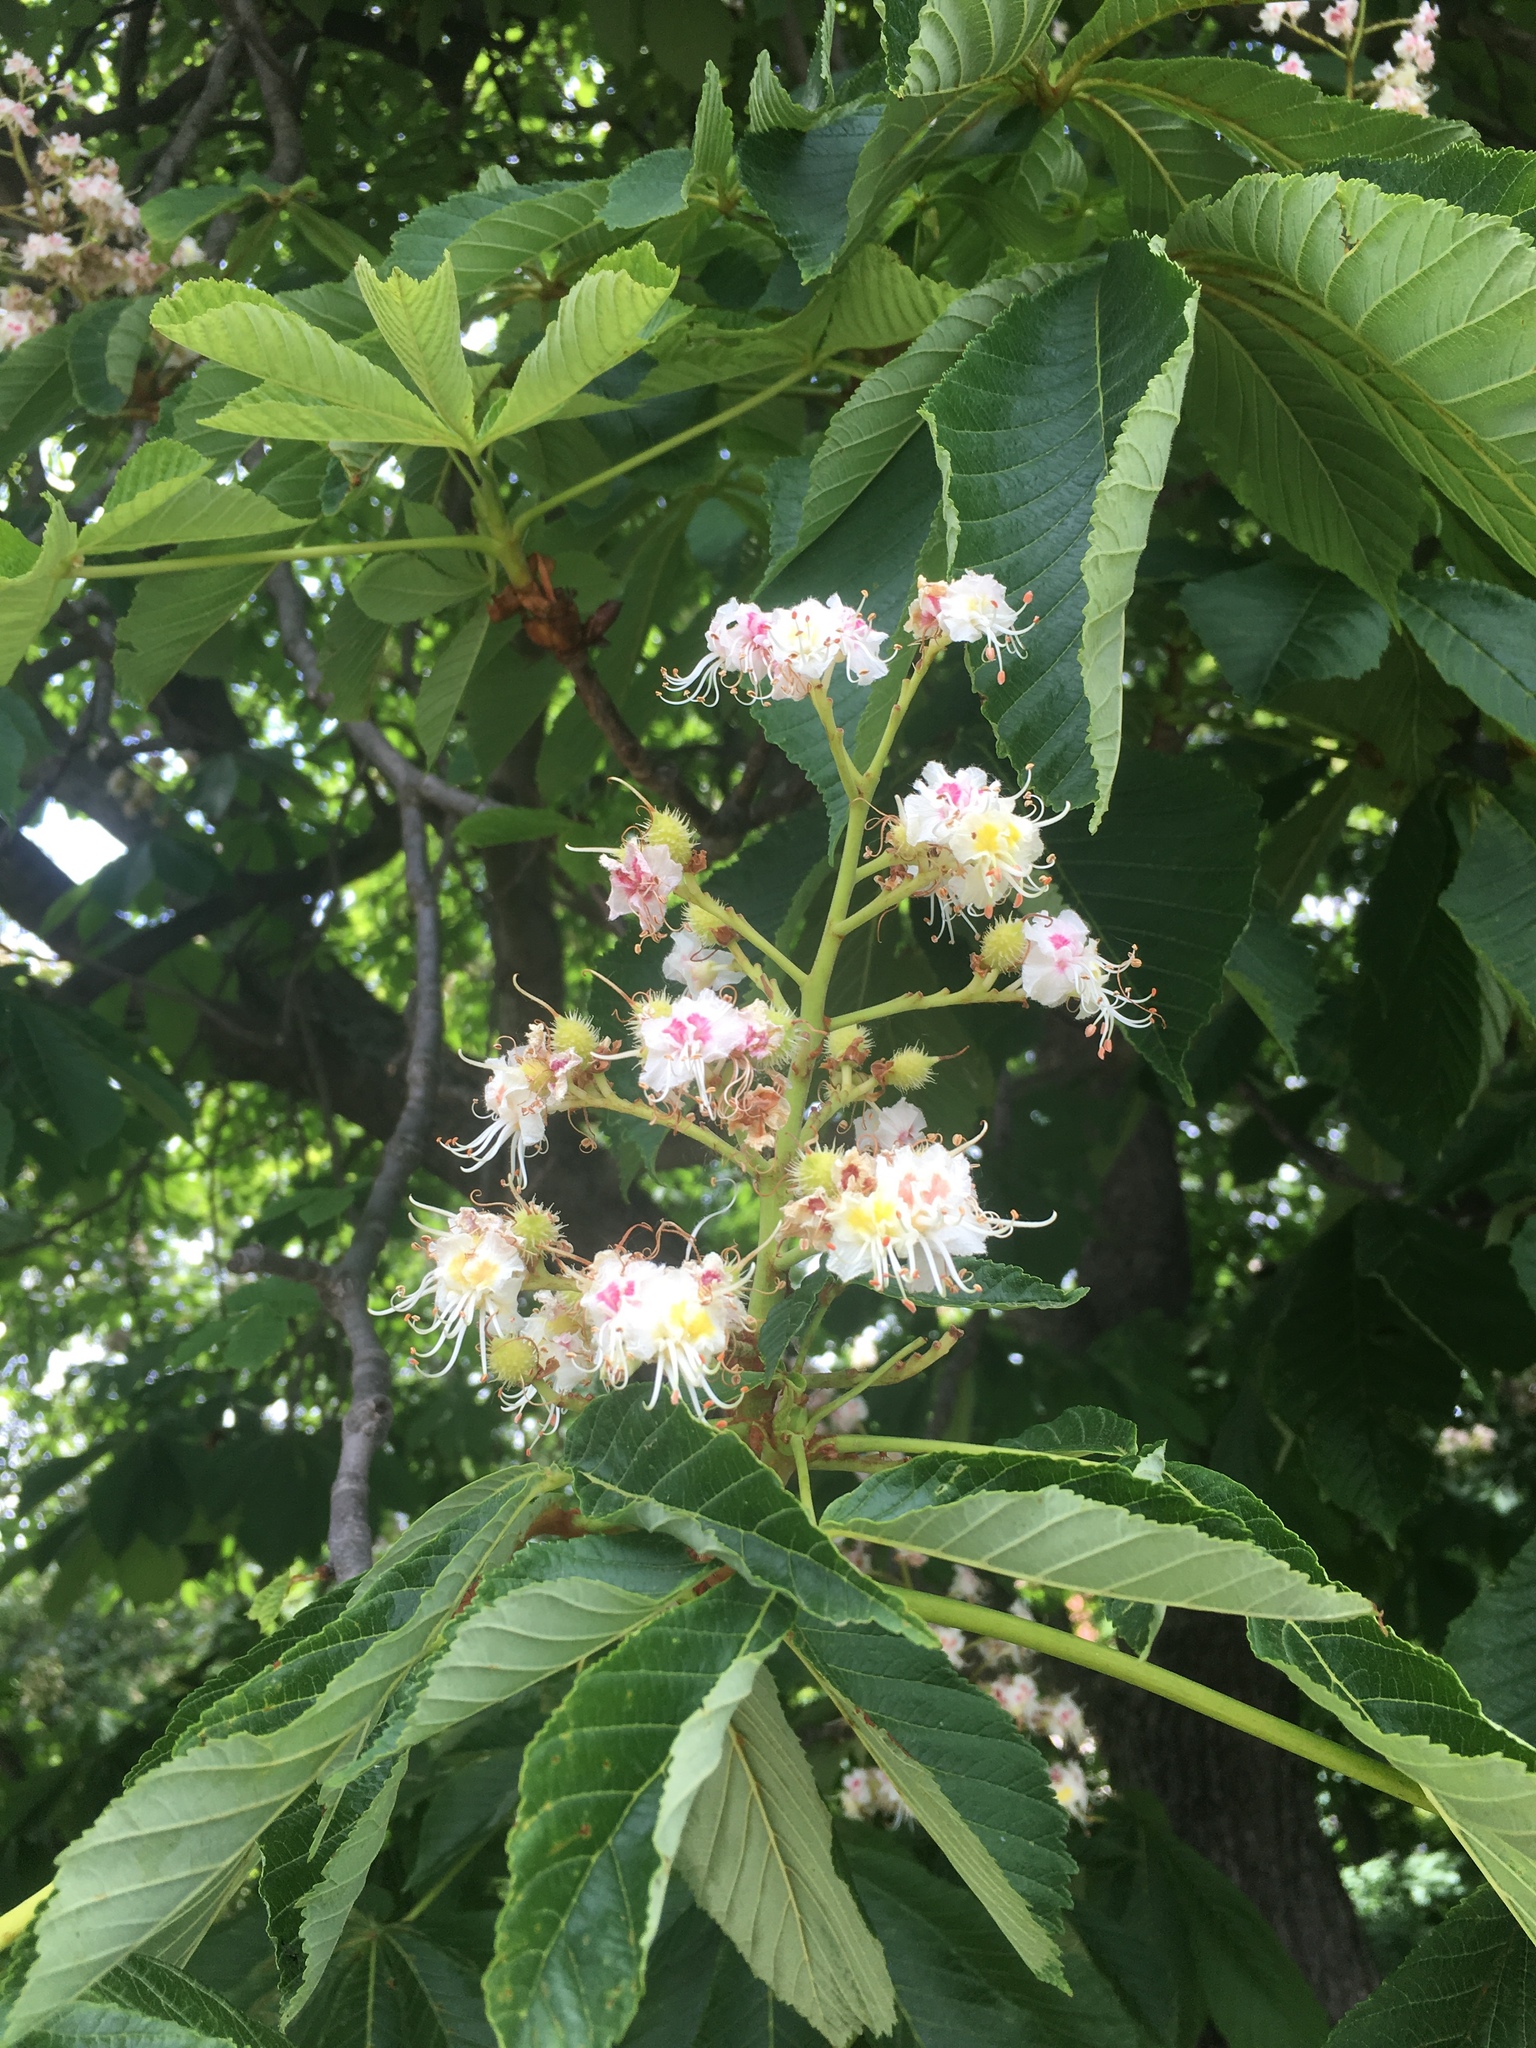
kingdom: Plantae
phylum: Tracheophyta
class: Magnoliopsida
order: Sapindales
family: Sapindaceae
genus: Aesculus
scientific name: Aesculus hippocastanum
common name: Horse-chestnut
